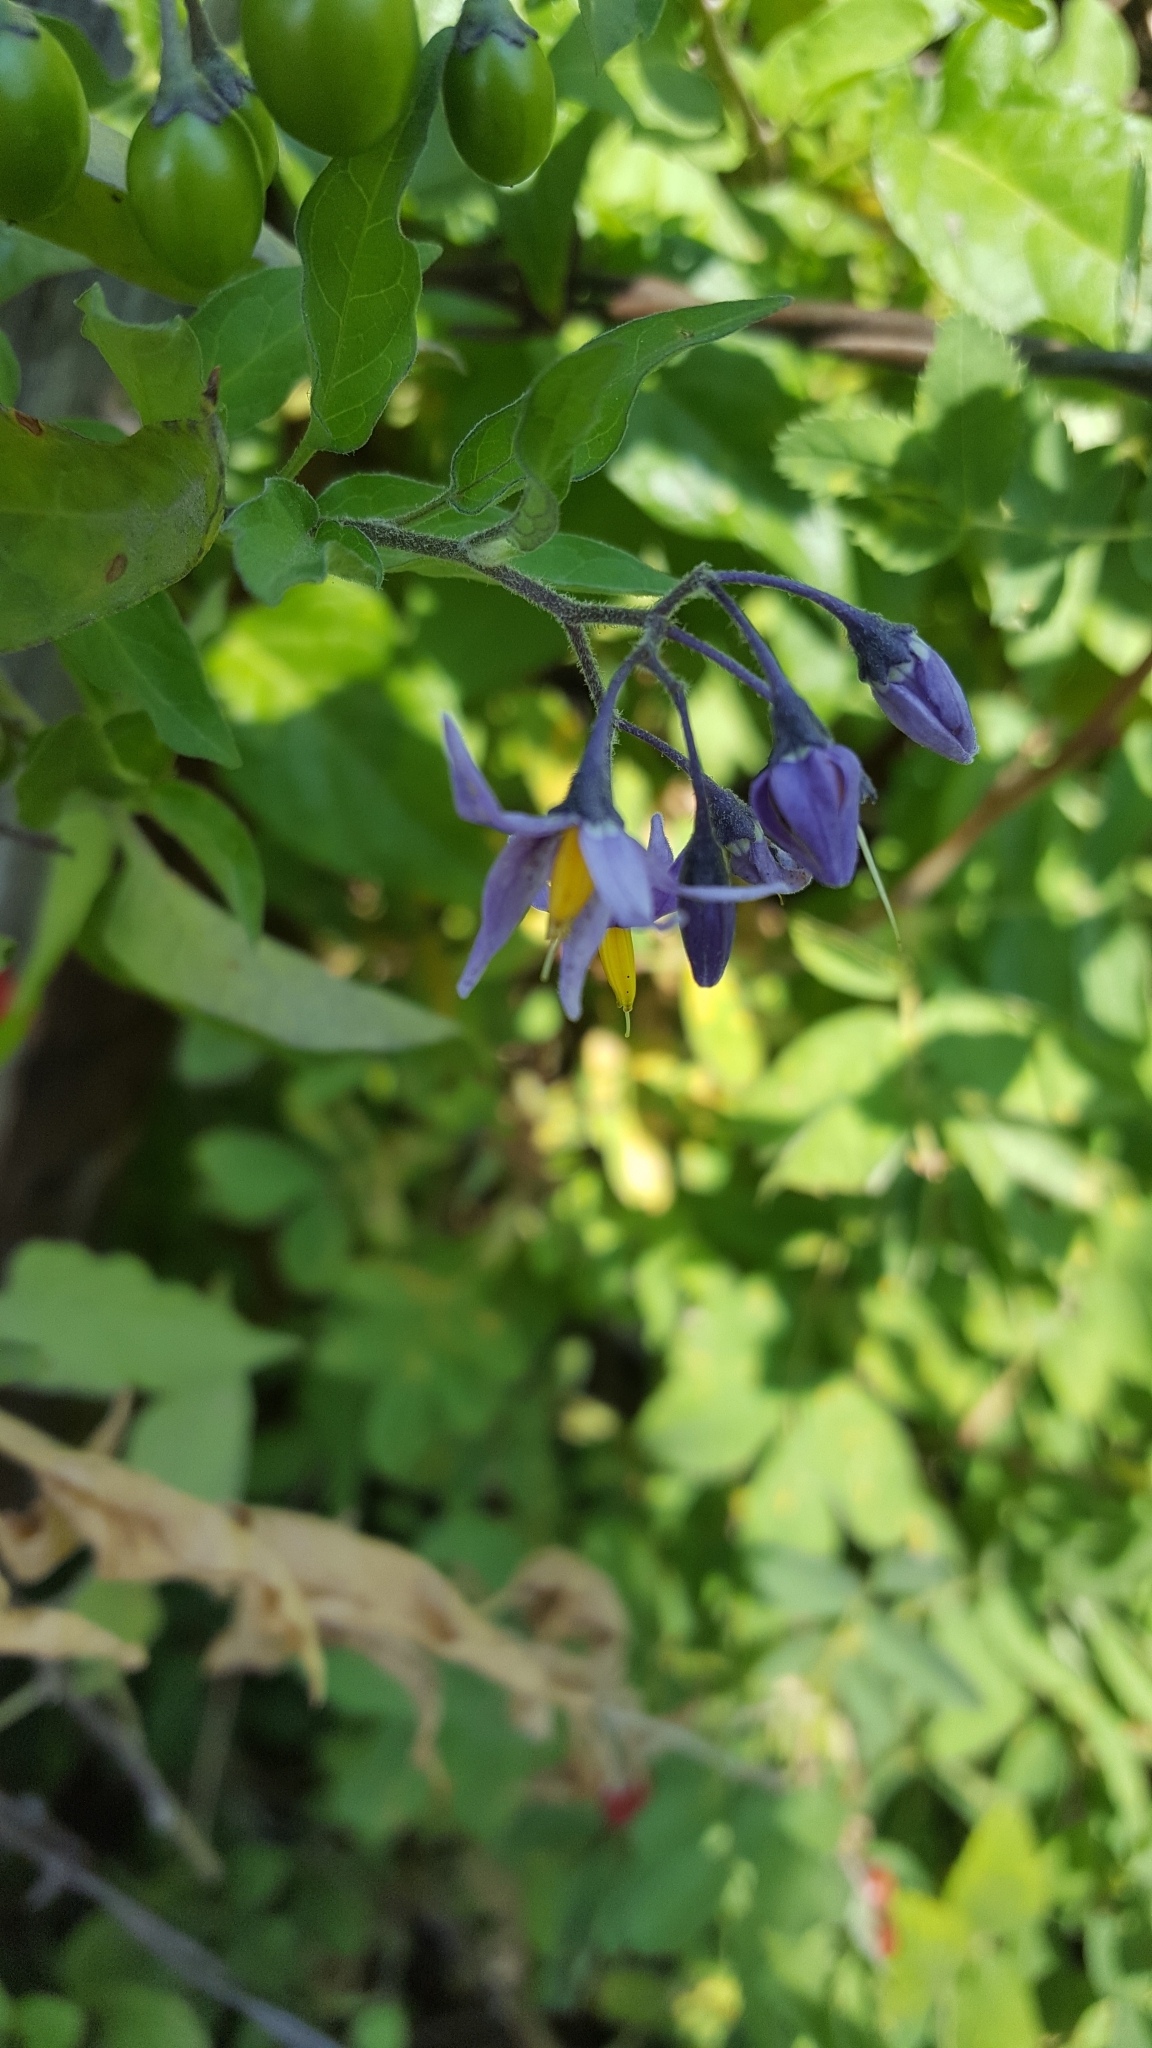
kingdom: Plantae
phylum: Tracheophyta
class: Magnoliopsida
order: Solanales
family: Solanaceae
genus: Solanum
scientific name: Solanum dulcamara
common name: Climbing nightshade
